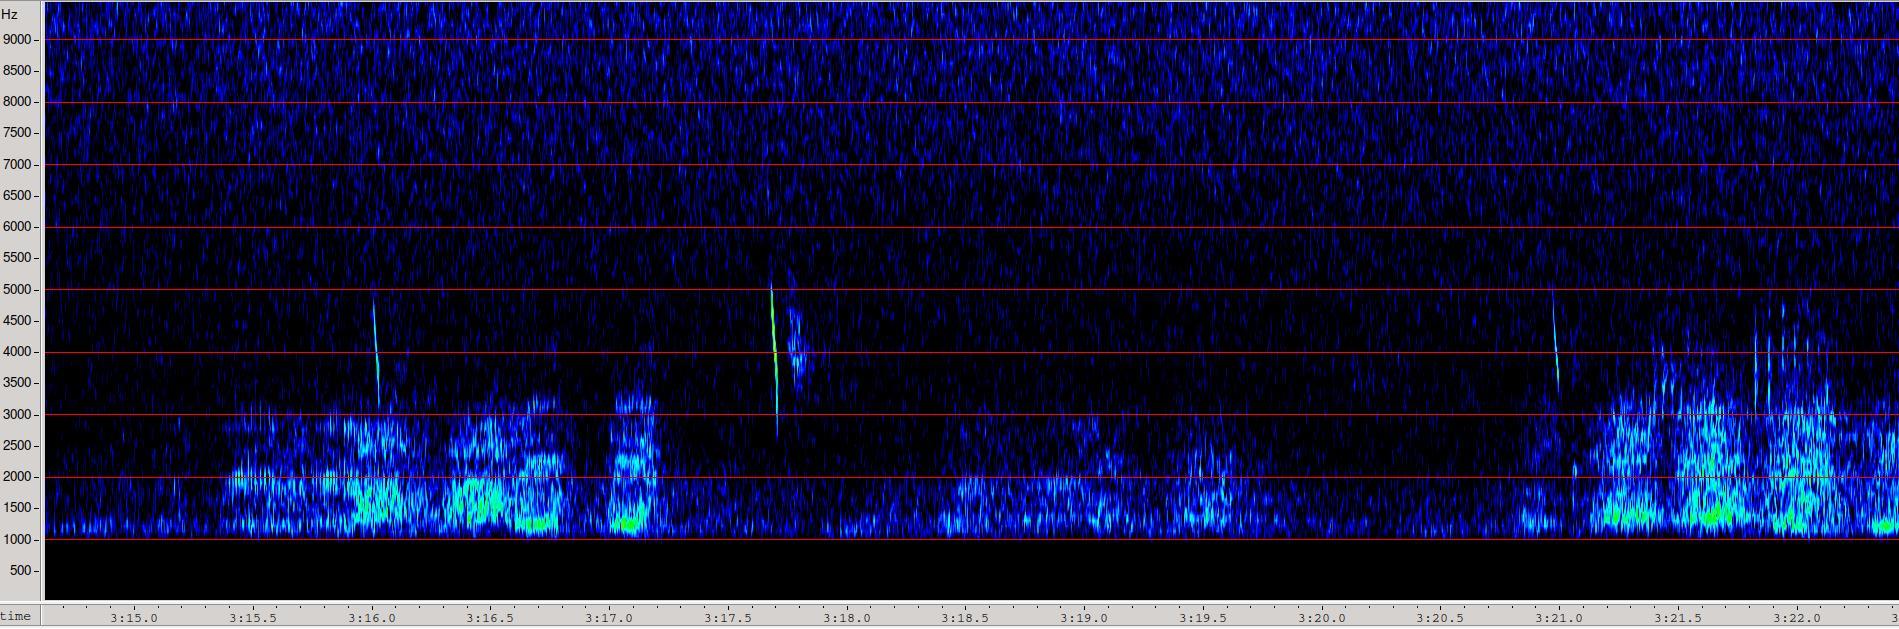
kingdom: Animalia
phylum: Arthropoda
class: Insecta
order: Orthoptera
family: Tettigoniidae
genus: Pholidoptera
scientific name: Pholidoptera griseoaptera
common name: Dark bush-cricket
